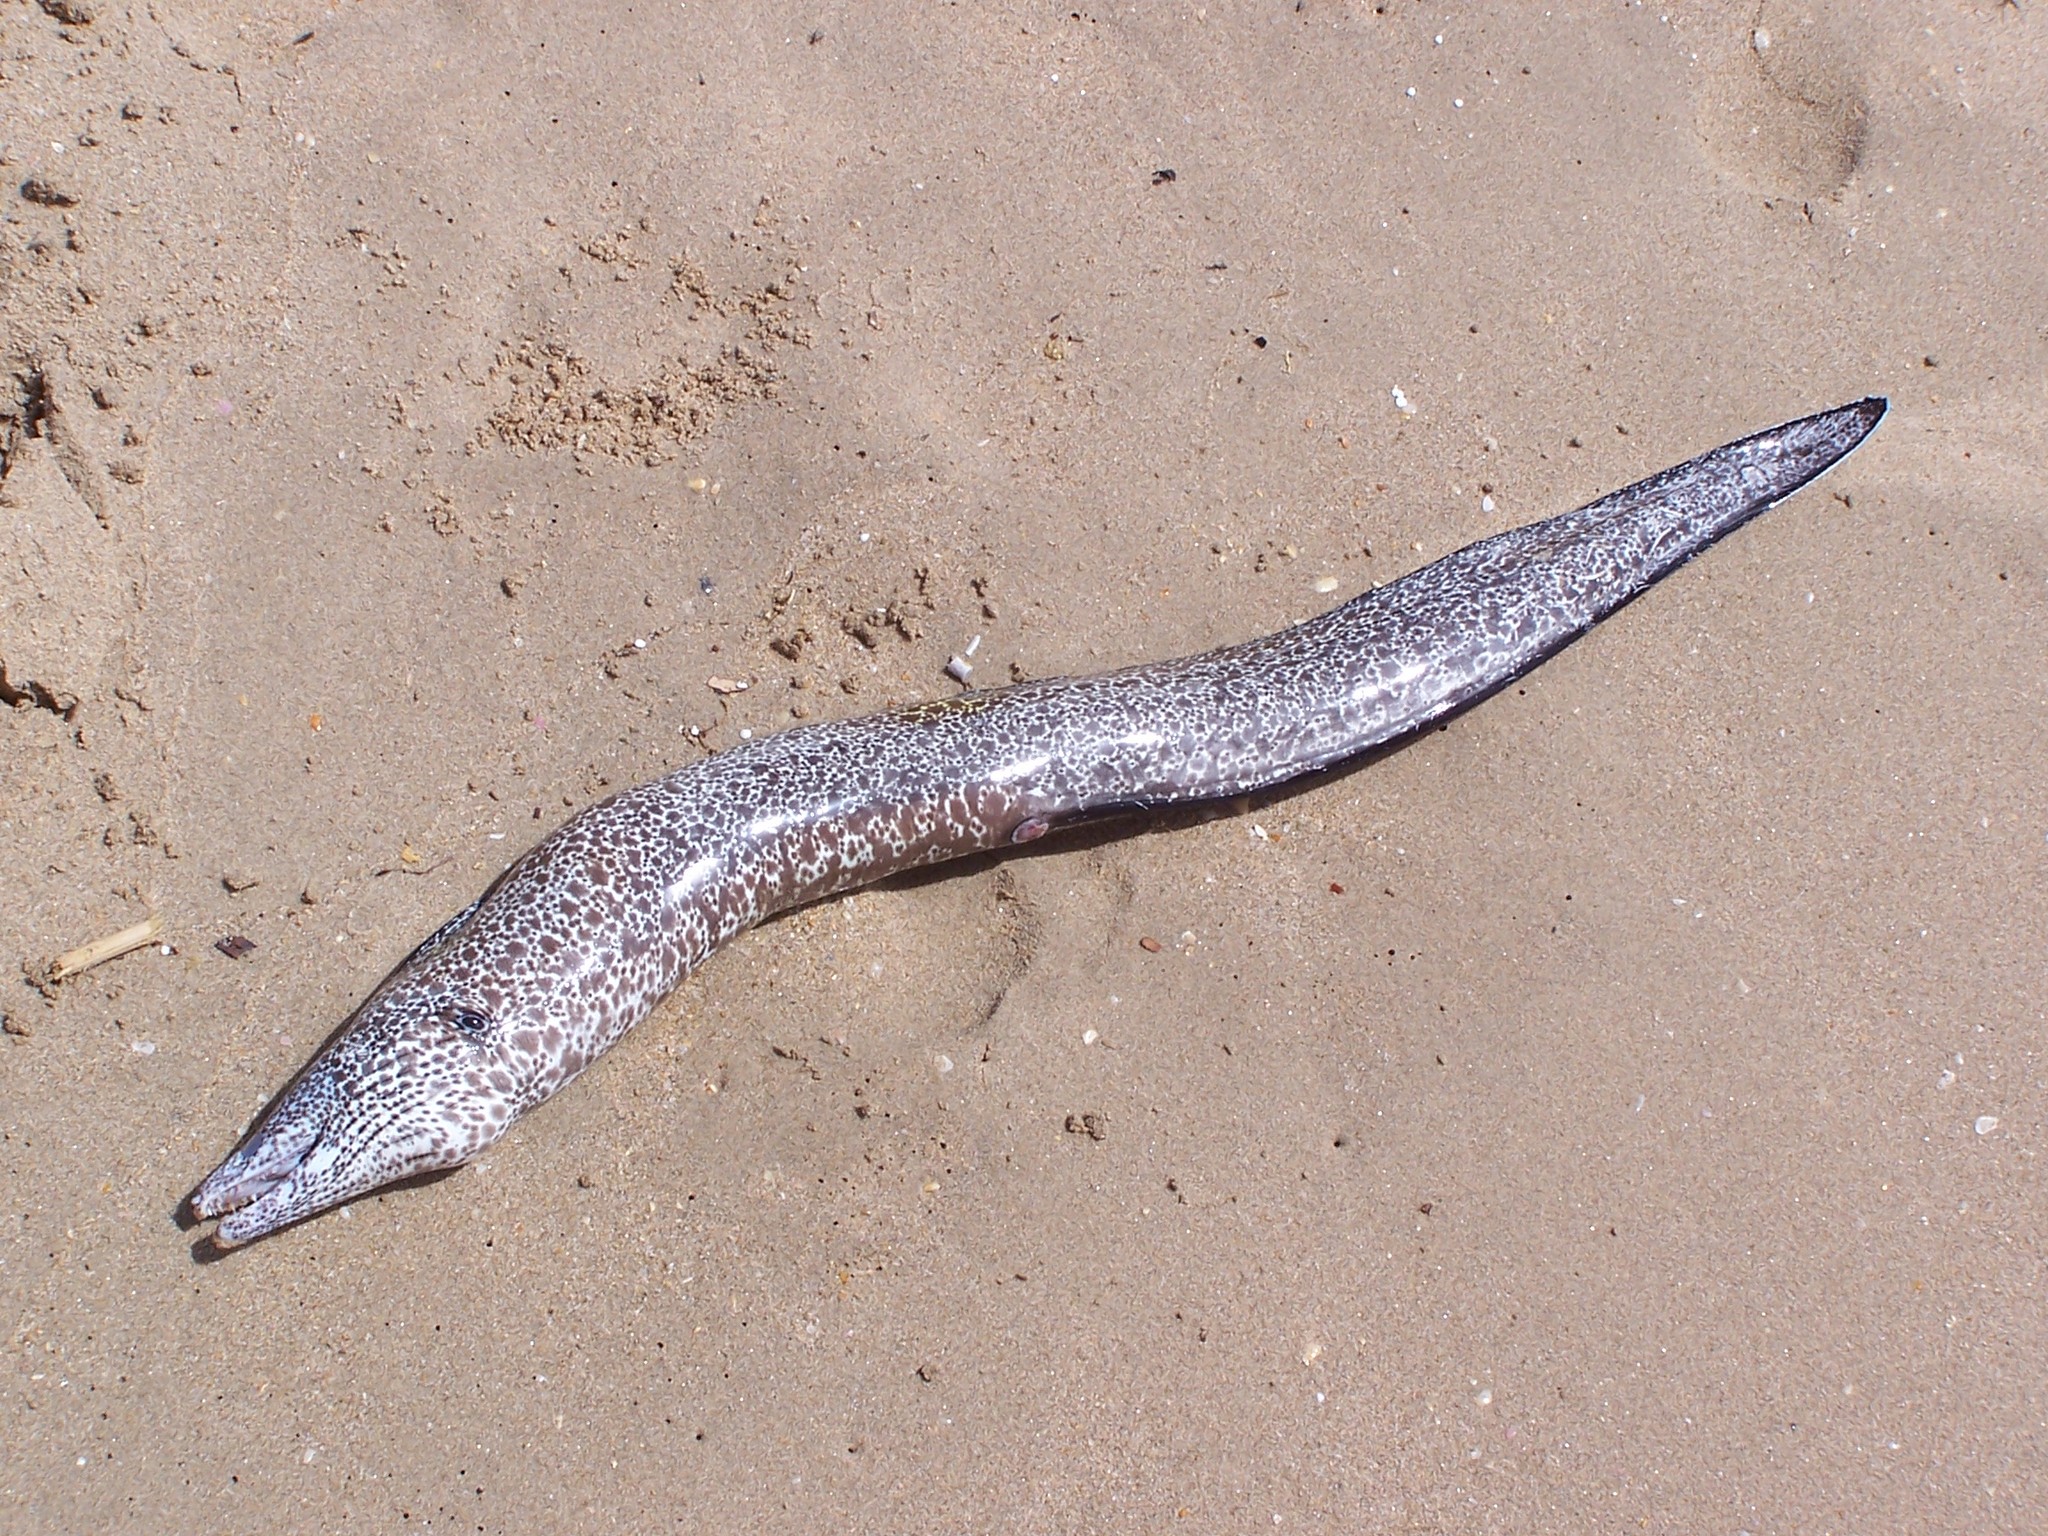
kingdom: Animalia
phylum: Chordata
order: Anguilliformes
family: Muraenidae
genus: Gymnothorax
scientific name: Gymnothorax moringa
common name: Spotted moray
